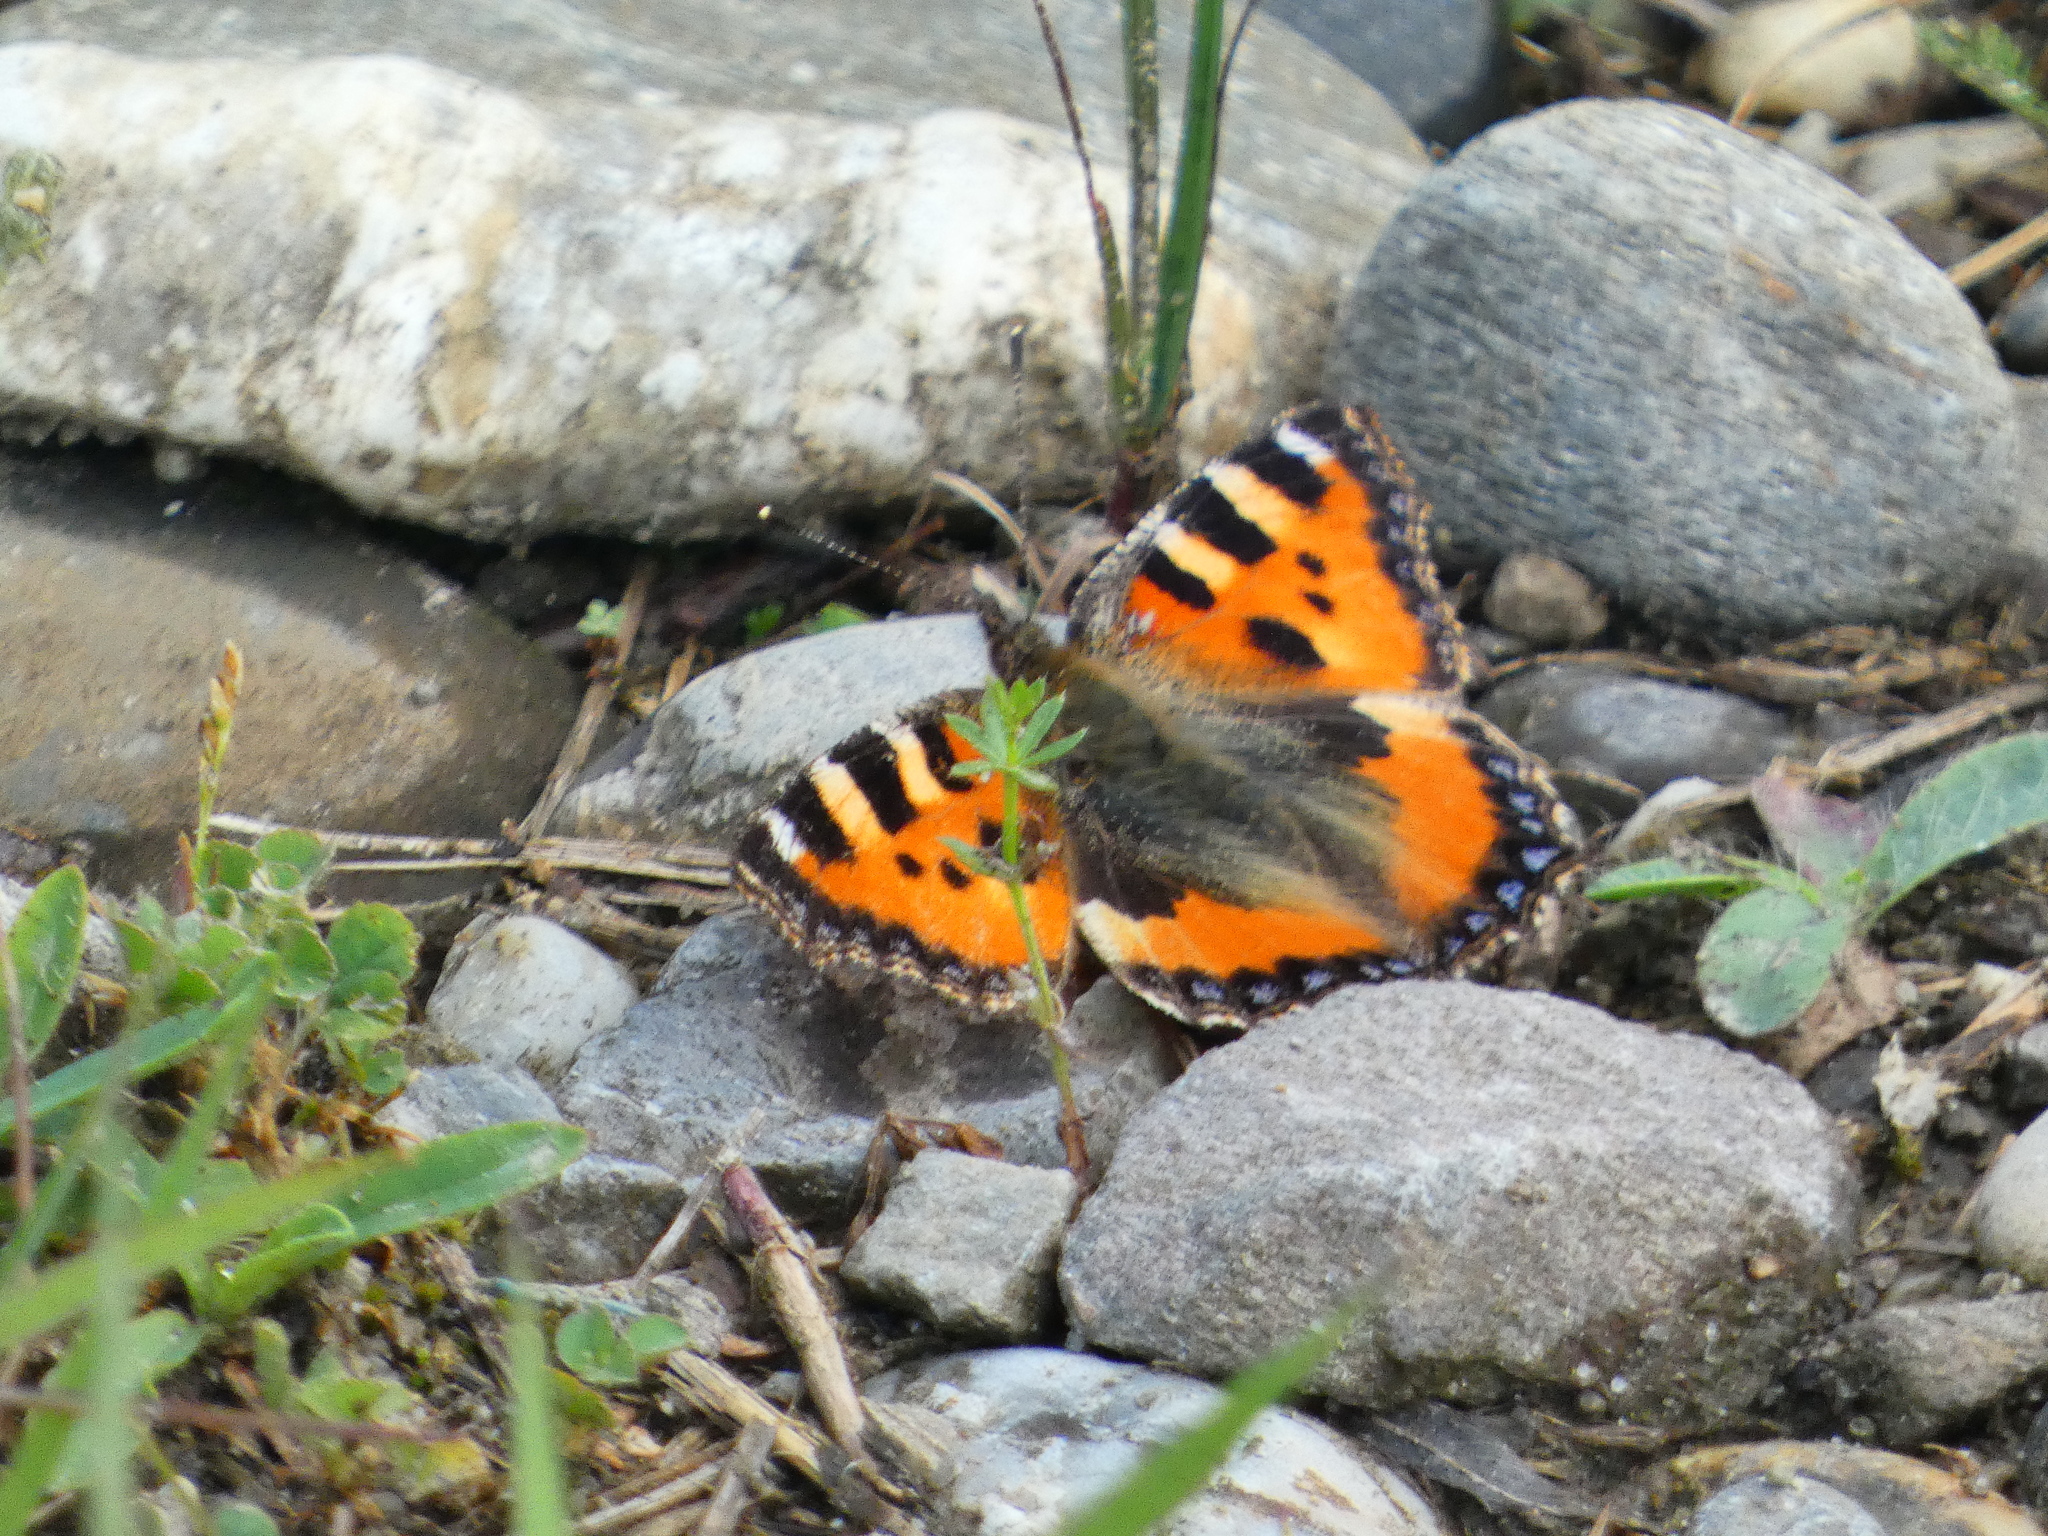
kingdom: Animalia
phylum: Arthropoda
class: Insecta
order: Lepidoptera
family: Nymphalidae
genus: Aglais
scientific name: Aglais urticae
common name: Small tortoiseshell
